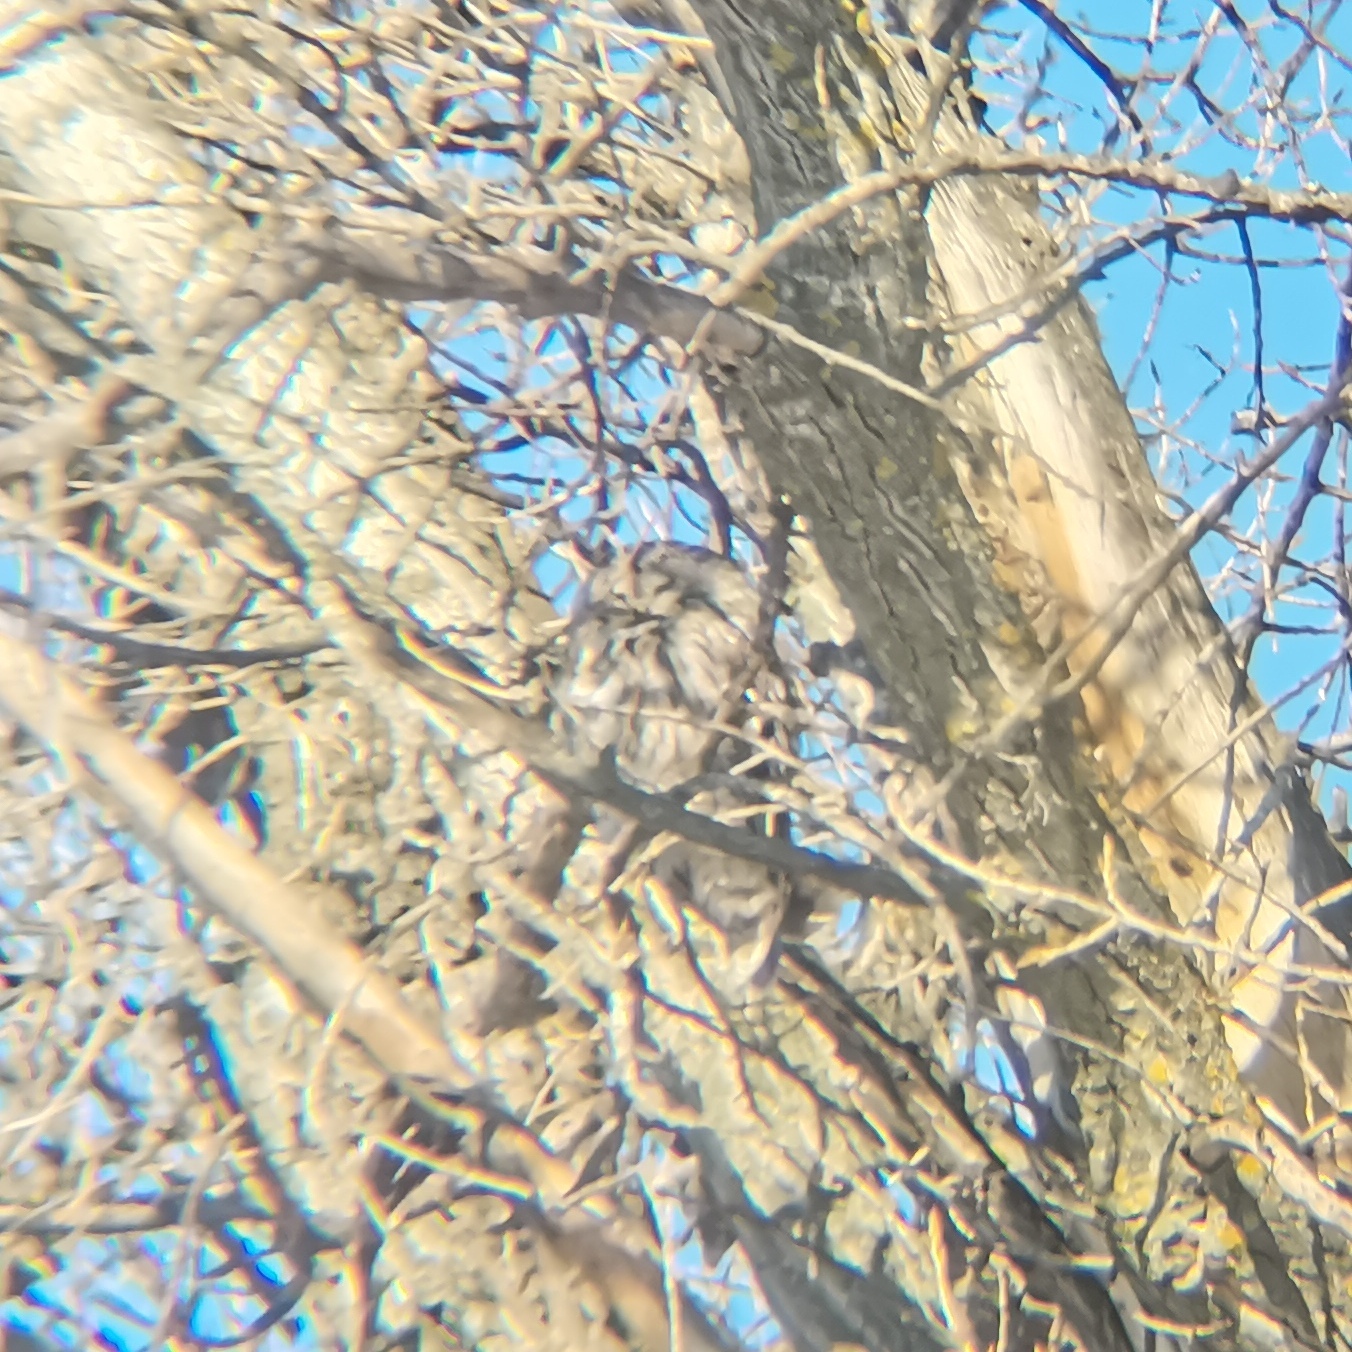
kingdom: Animalia
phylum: Chordata
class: Aves
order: Strigiformes
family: Strigidae
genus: Strix
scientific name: Strix aluco
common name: Tawny owl
